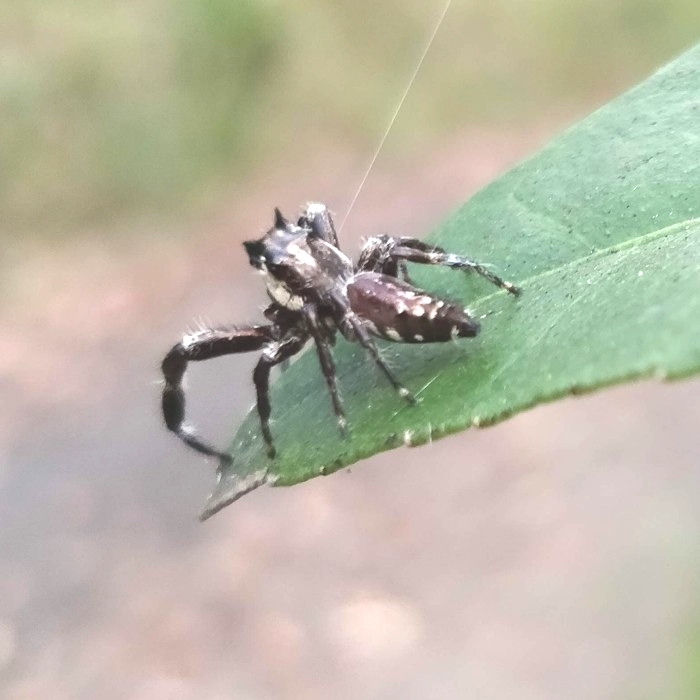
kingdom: Animalia
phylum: Arthropoda
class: Arachnida
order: Araneae
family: Salticidae
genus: Sandalodes
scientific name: Sandalodes bipenicillatus
